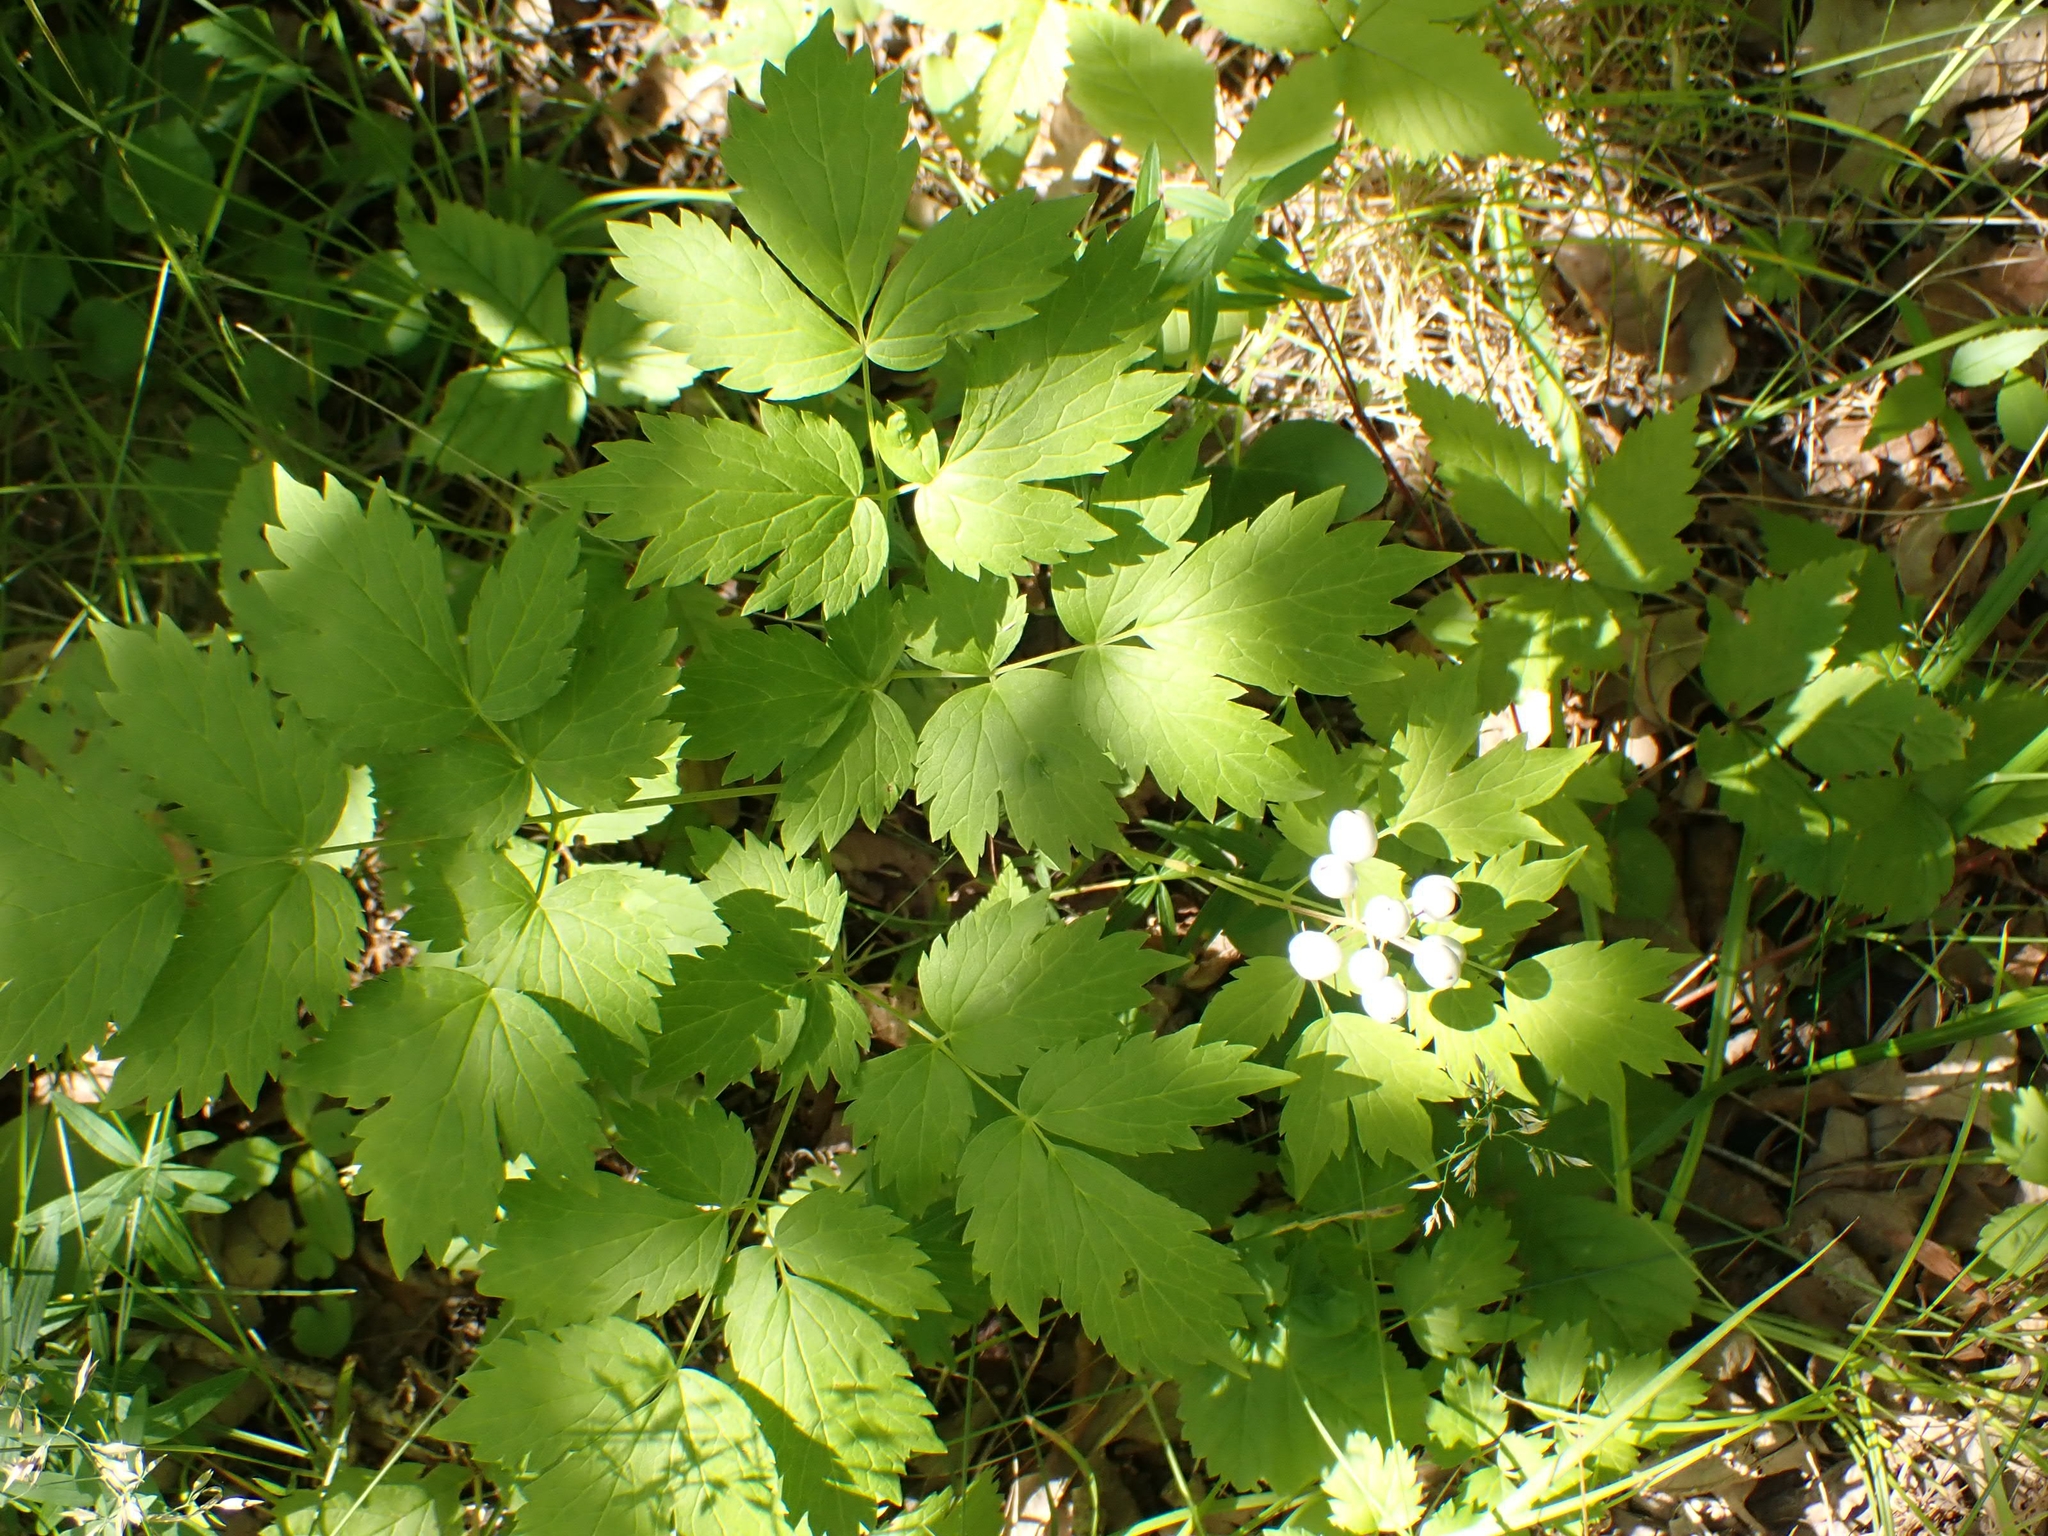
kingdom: Plantae
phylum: Tracheophyta
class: Magnoliopsida
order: Ranunculales
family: Ranunculaceae
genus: Actaea
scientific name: Actaea rubra
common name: Red baneberry
